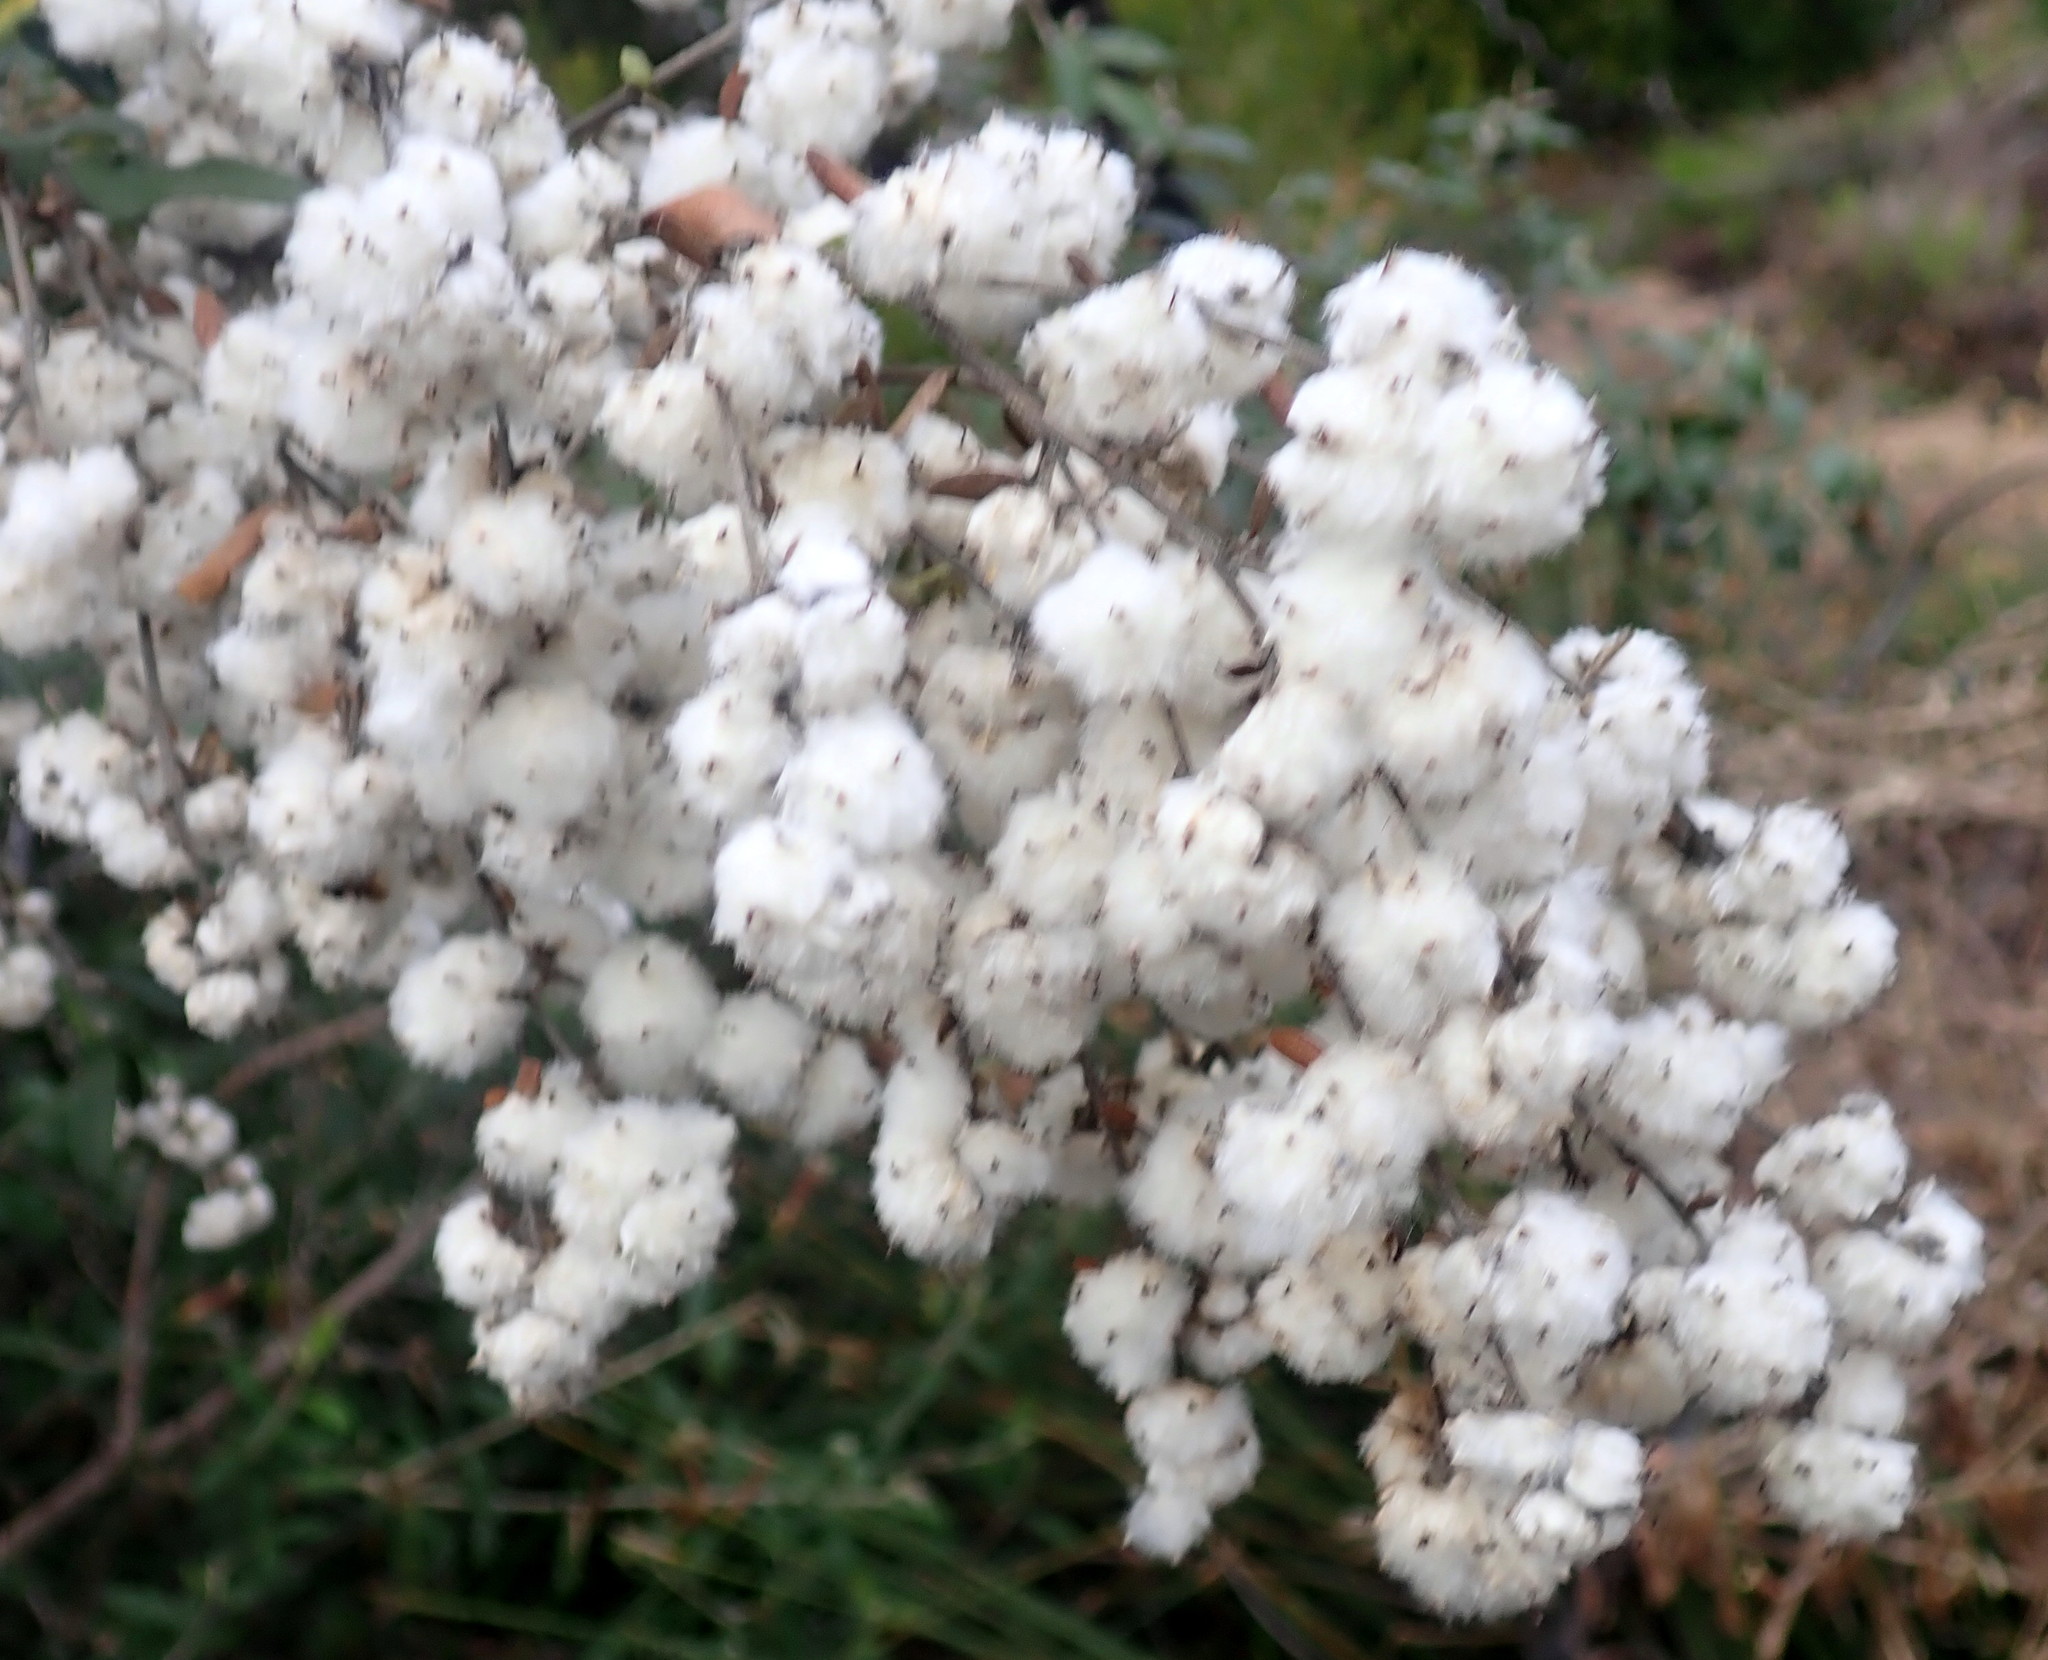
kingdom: Plantae
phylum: Tracheophyta
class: Magnoliopsida
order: Asterales
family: Asteraceae
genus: Tarchonanthus
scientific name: Tarchonanthus littoralis
